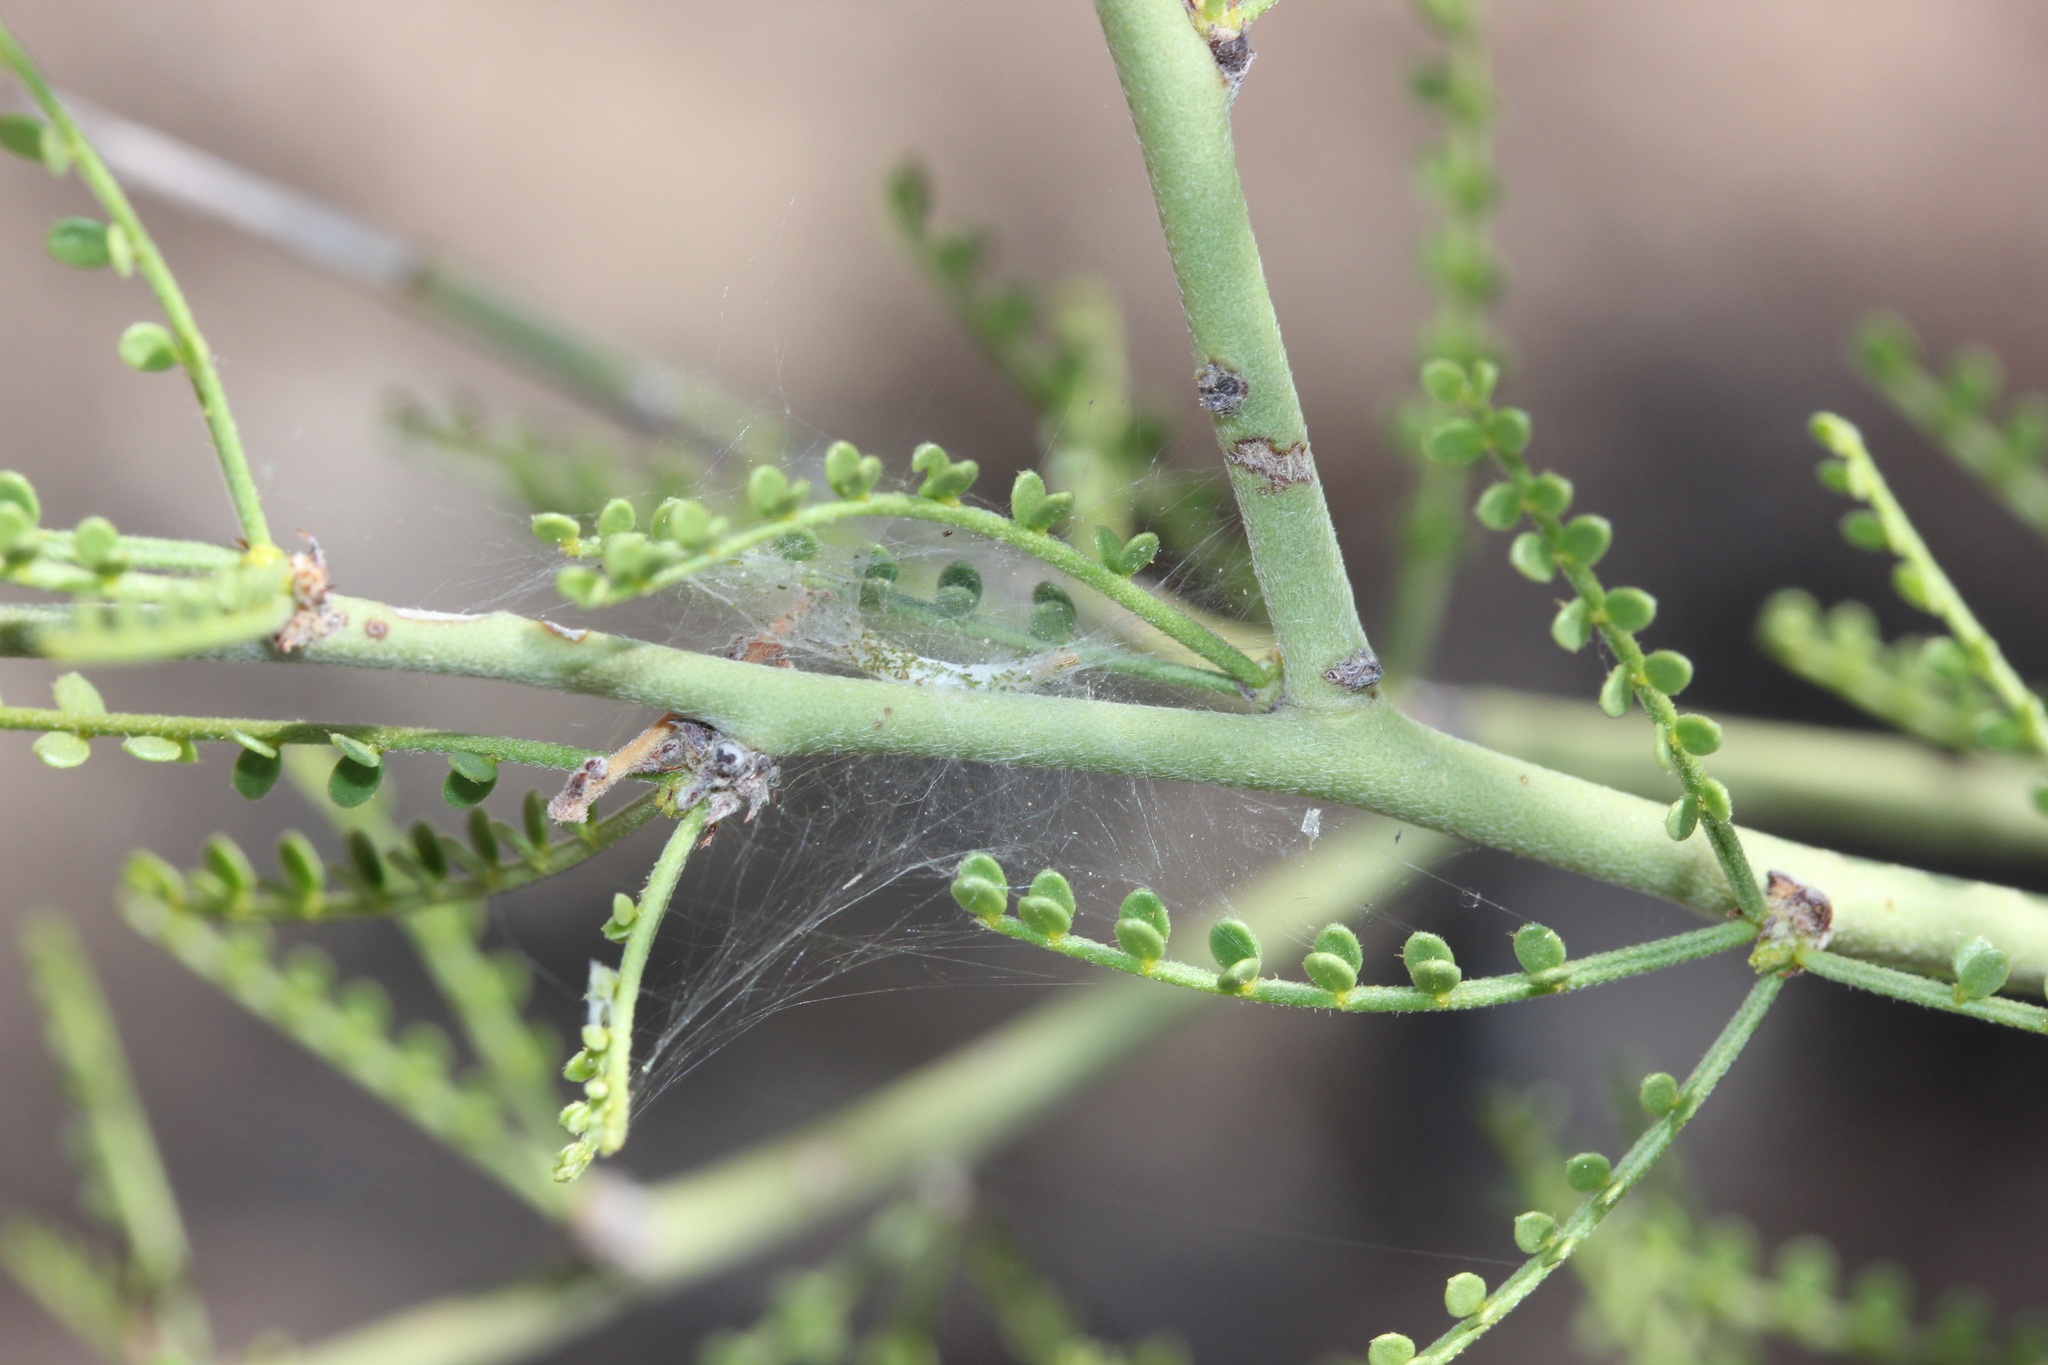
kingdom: Plantae
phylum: Tracheophyta
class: Magnoliopsida
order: Fabales
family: Fabaceae
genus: Parkinsonia
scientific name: Parkinsonia microphylla
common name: Yellow paloverde
